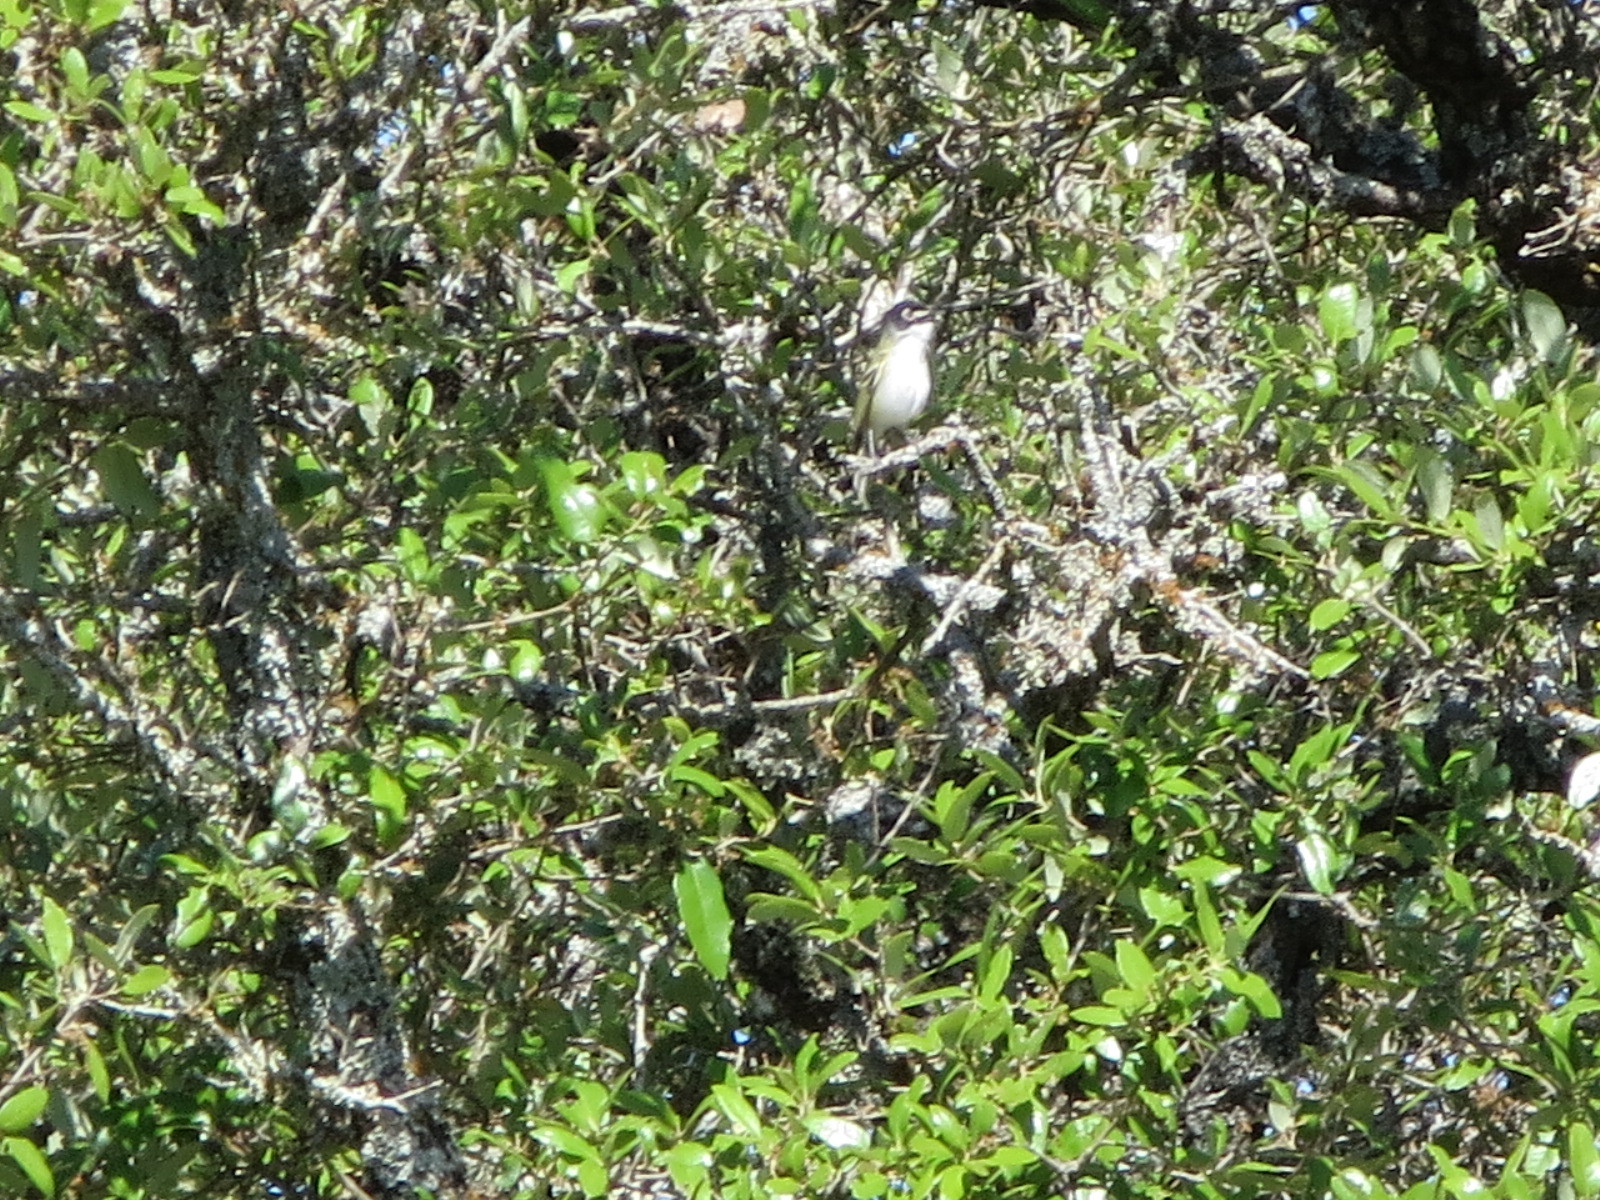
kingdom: Animalia
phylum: Chordata
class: Aves
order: Passeriformes
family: Vireonidae
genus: Vireo
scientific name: Vireo atricapilla
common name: Black-capped vireo
